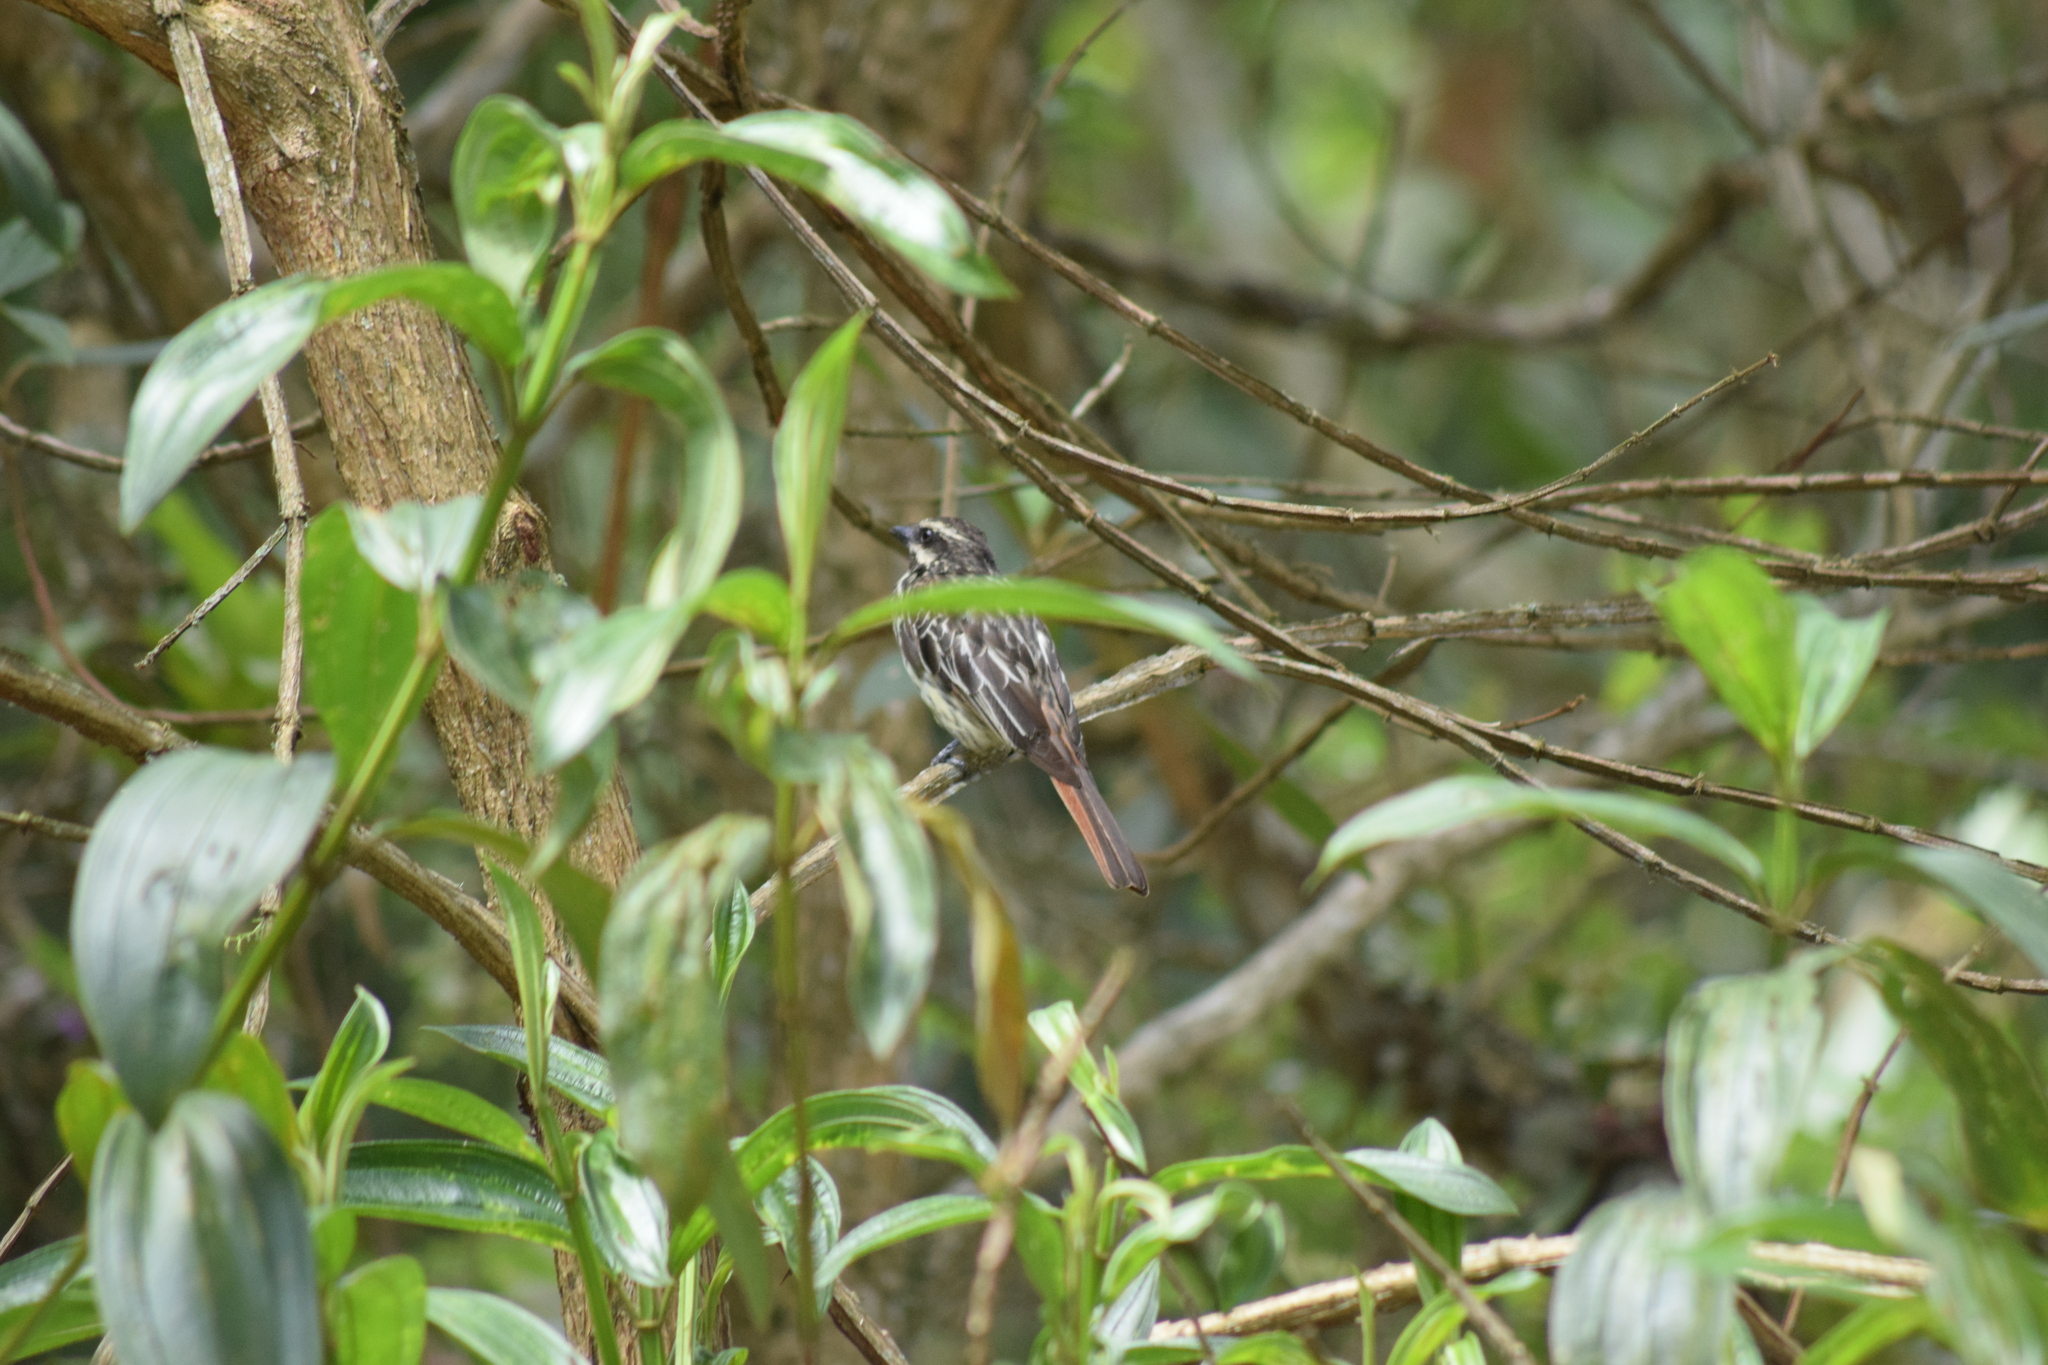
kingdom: Animalia
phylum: Chordata
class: Aves
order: Passeriformes
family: Tyrannidae
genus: Myiodynastes
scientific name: Myiodynastes maculatus
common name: Streaked flycatcher
